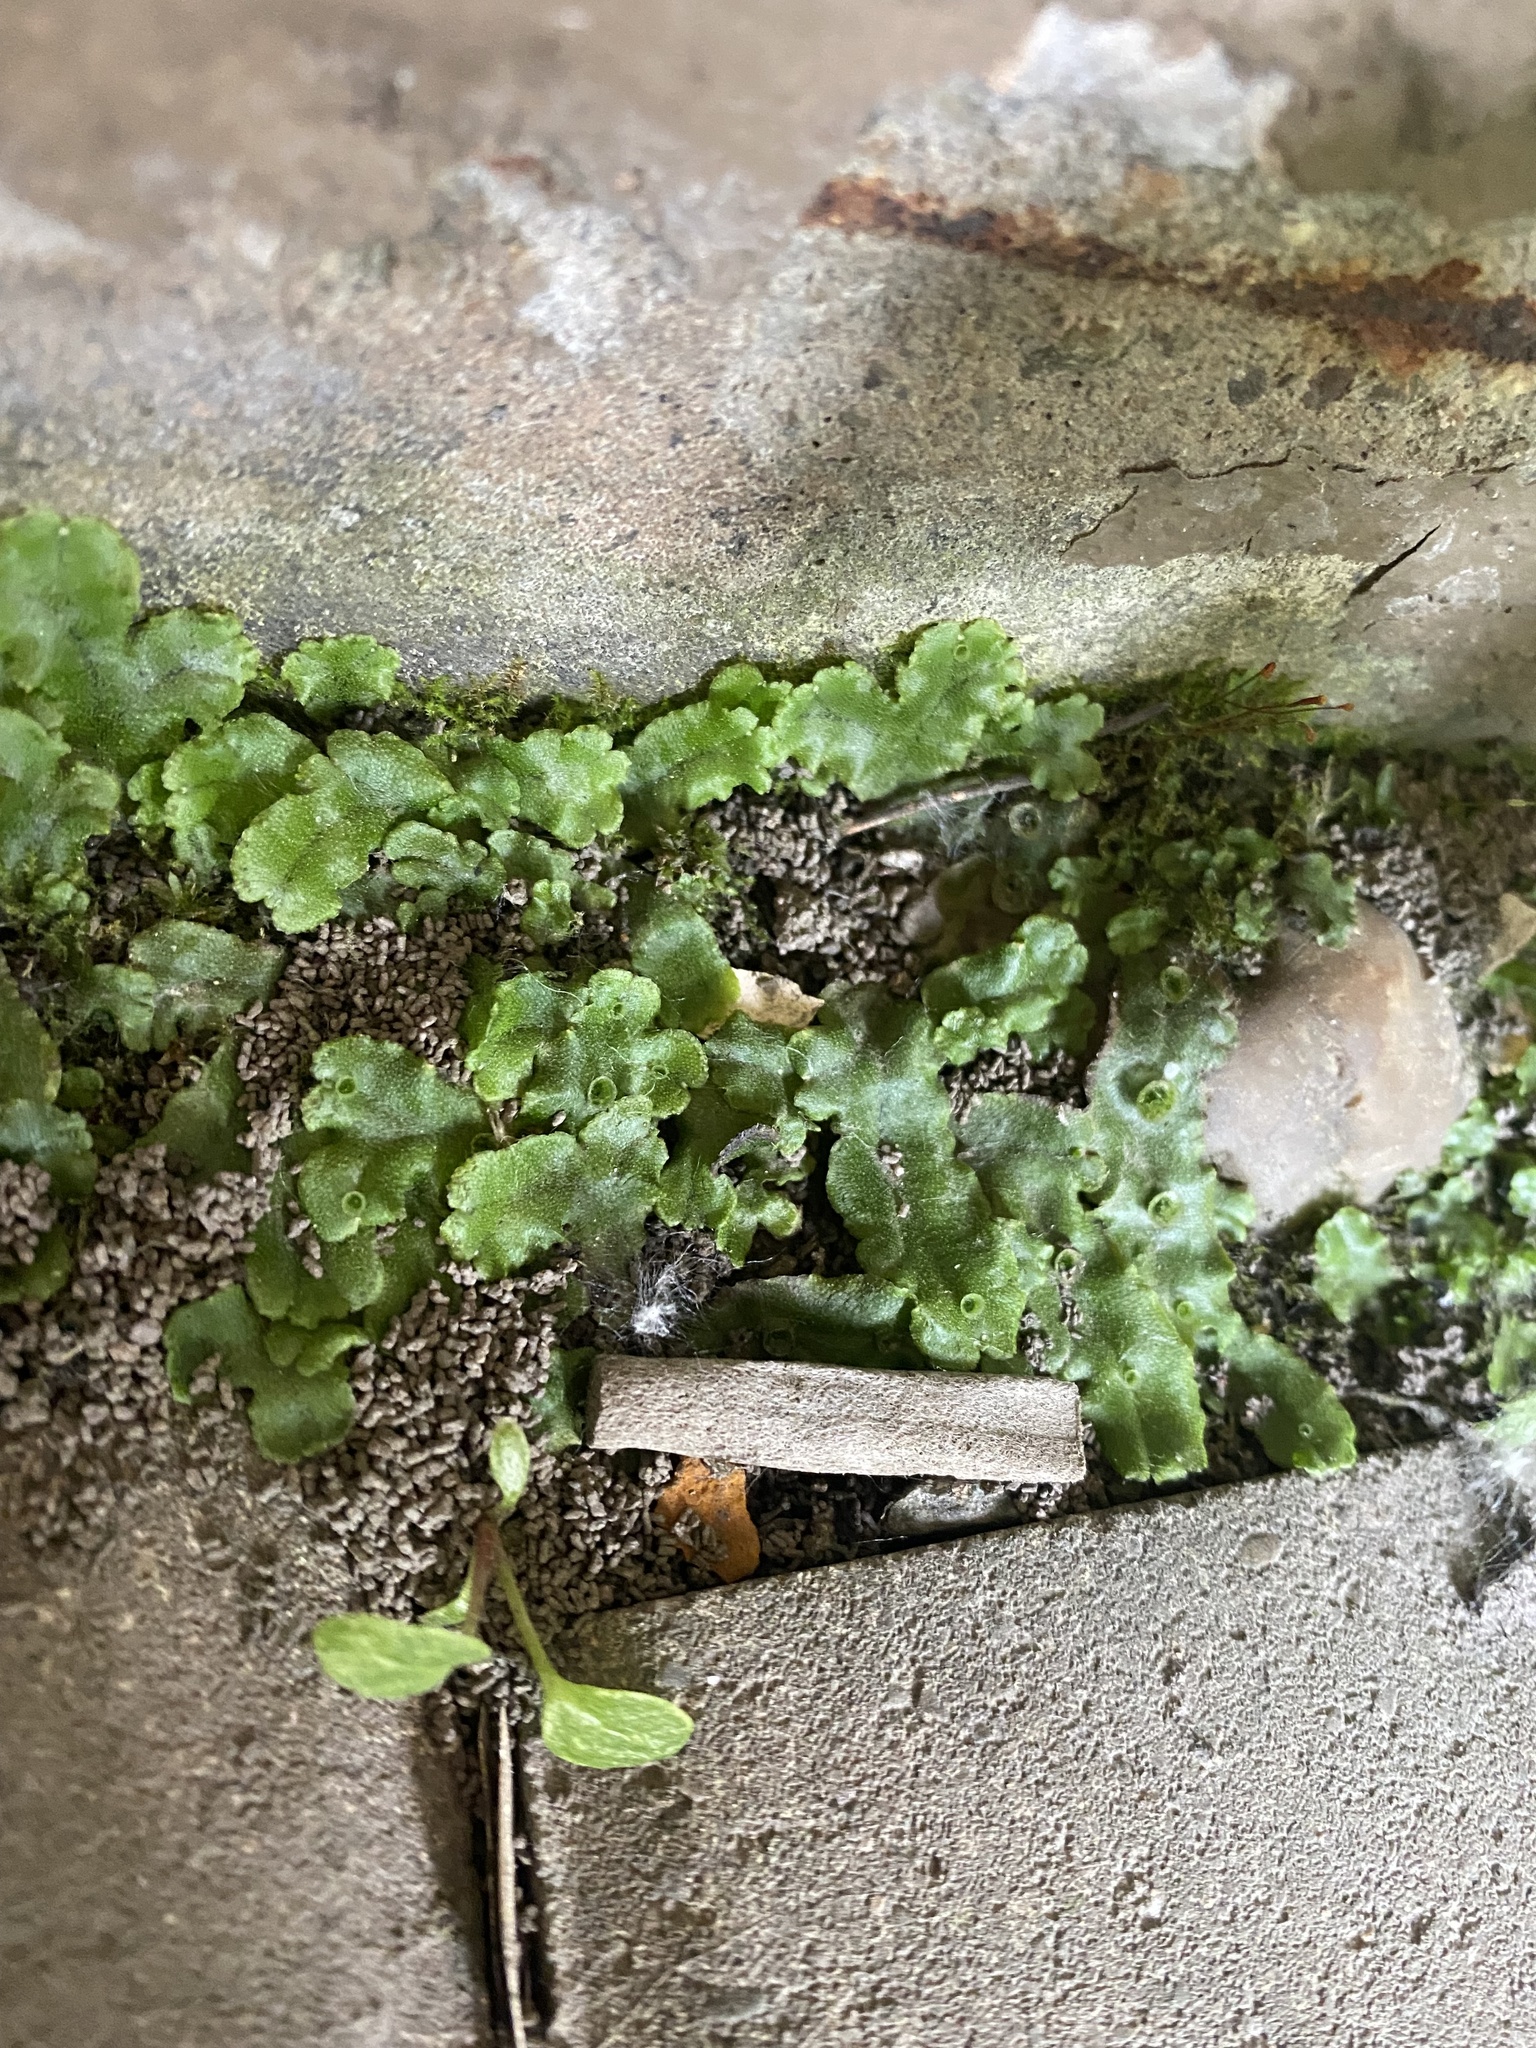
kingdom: Plantae
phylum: Marchantiophyta
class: Marchantiopsida
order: Marchantiales
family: Marchantiaceae
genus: Marchantia
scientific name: Marchantia polymorpha
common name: Common liverwort
